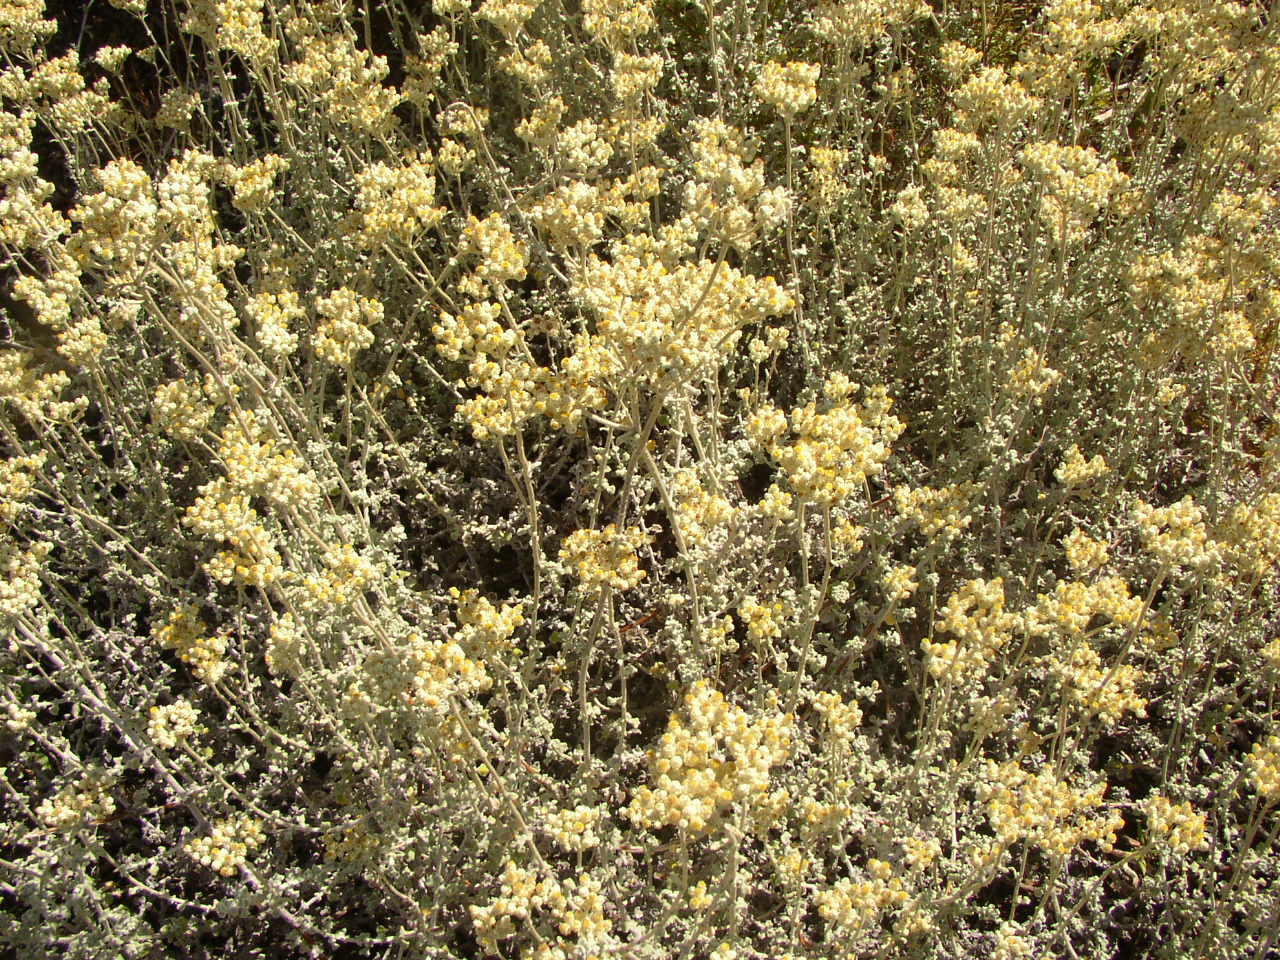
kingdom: Plantae
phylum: Tracheophyta
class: Magnoliopsida
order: Asterales
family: Asteraceae
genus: Helichrysum
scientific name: Helichrysum patulum
